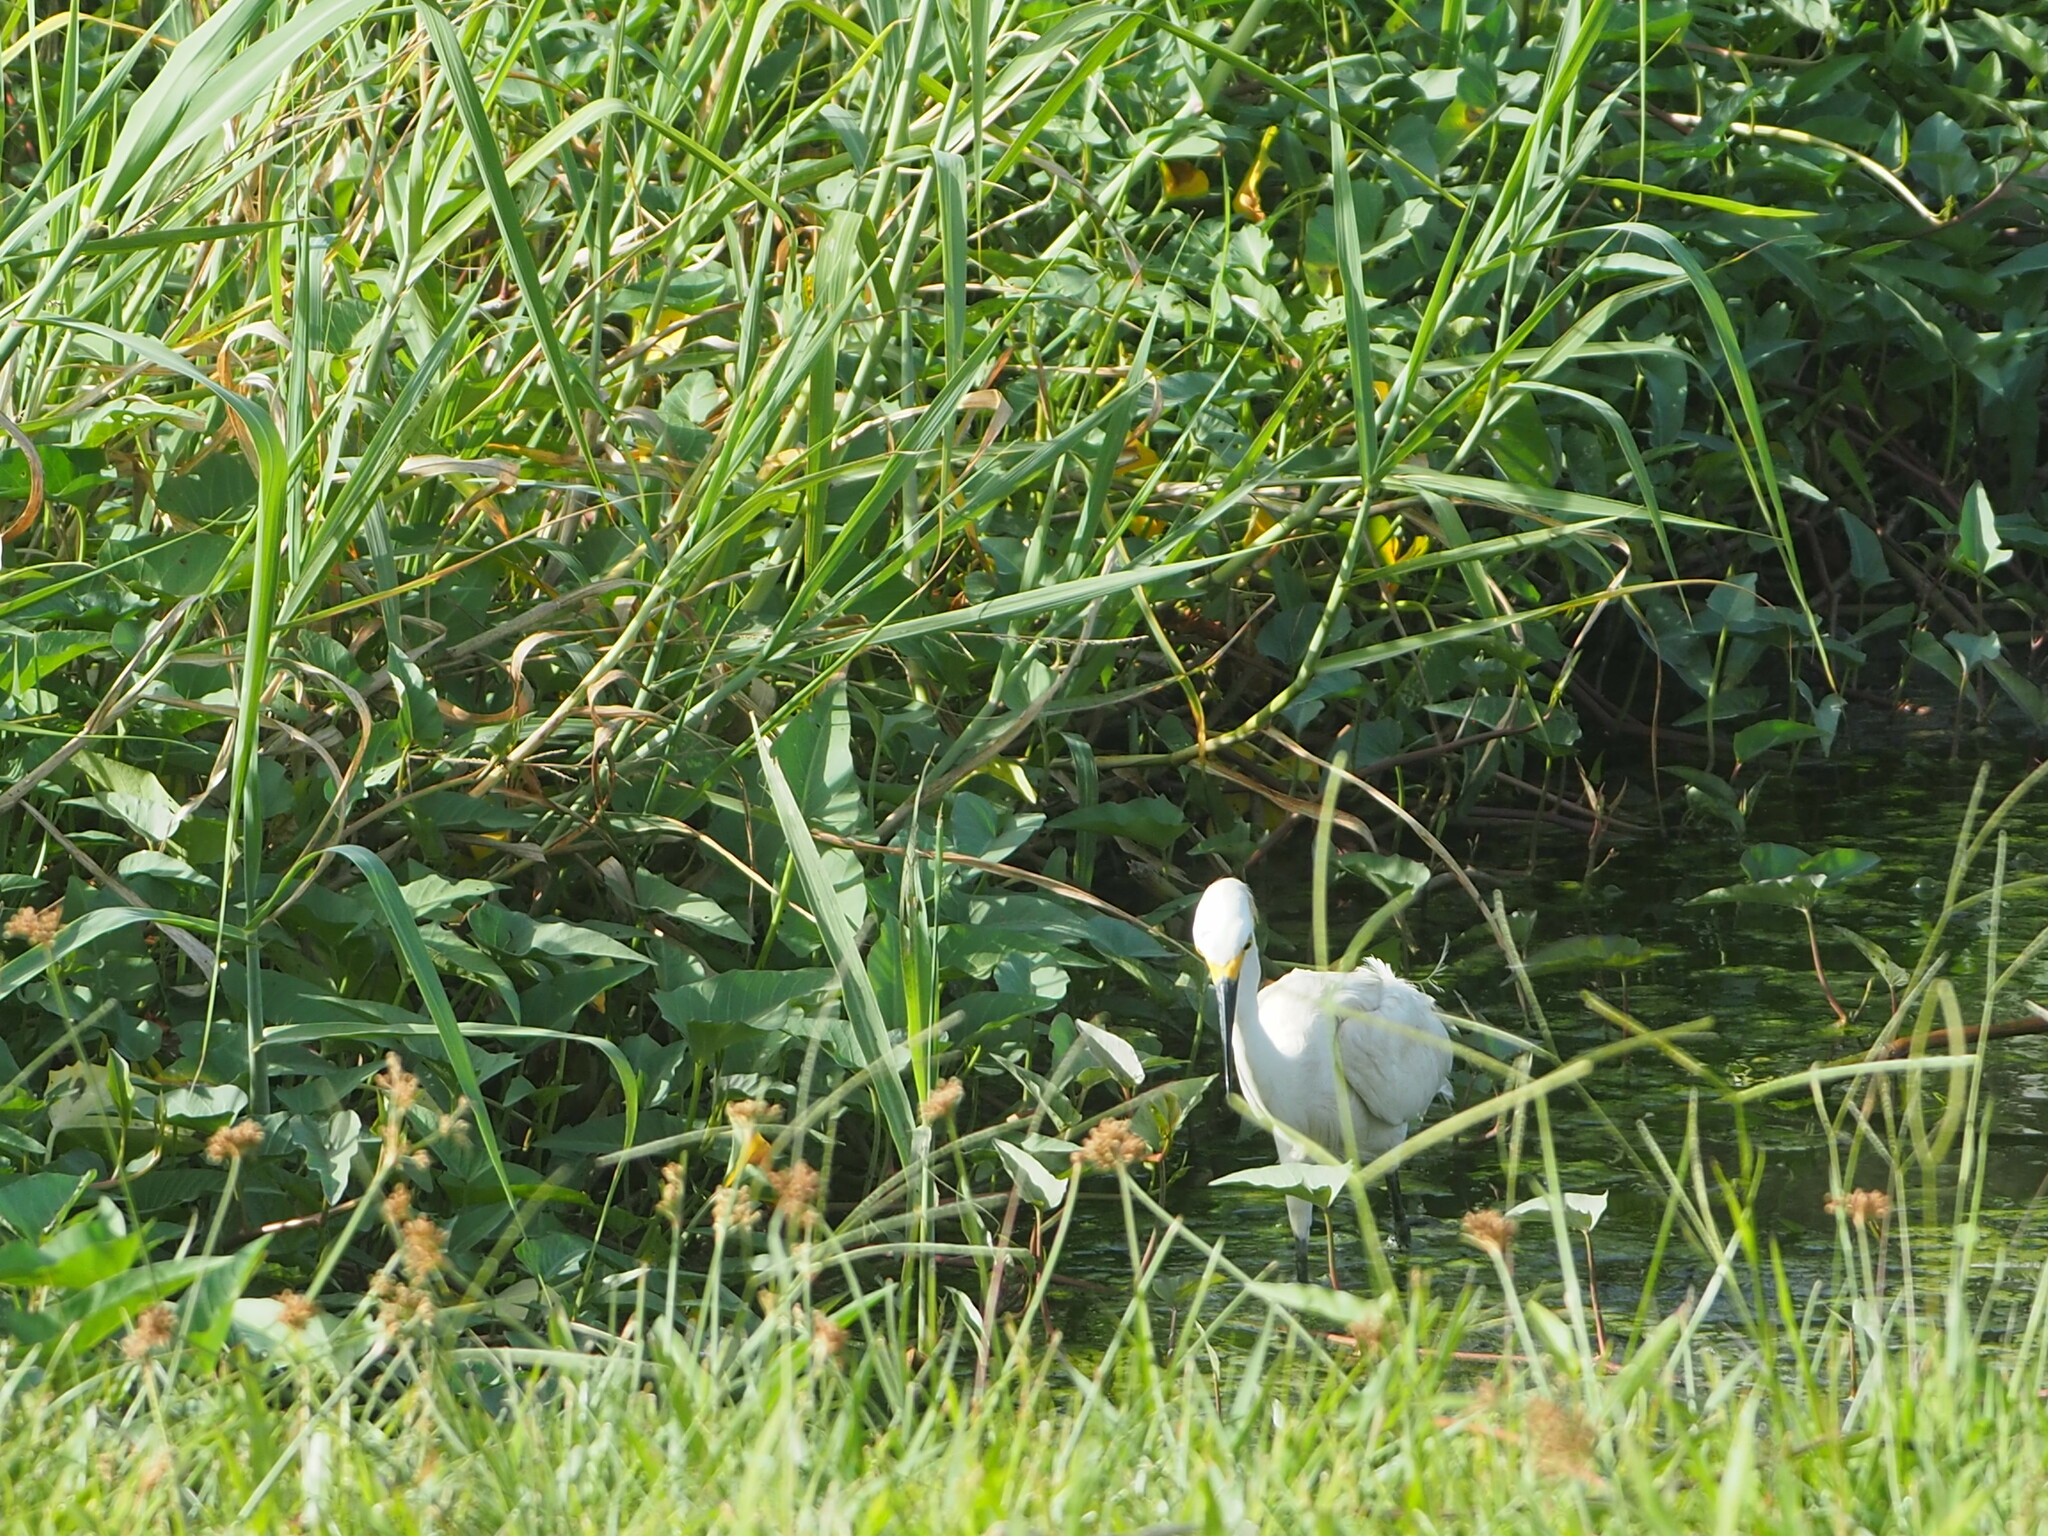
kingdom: Animalia
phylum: Chordata
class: Aves
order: Pelecaniformes
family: Ardeidae
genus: Egretta
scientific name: Egretta thula
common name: Snowy egret
